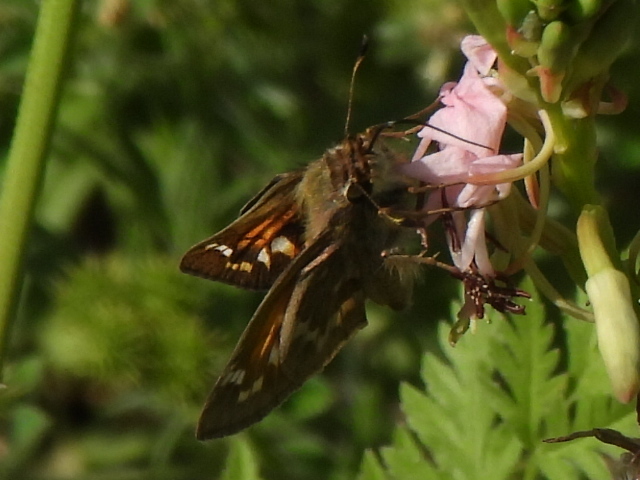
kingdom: Animalia
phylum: Arthropoda
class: Insecta
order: Lepidoptera
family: Hesperiidae
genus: Atalopedes
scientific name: Atalopedes
